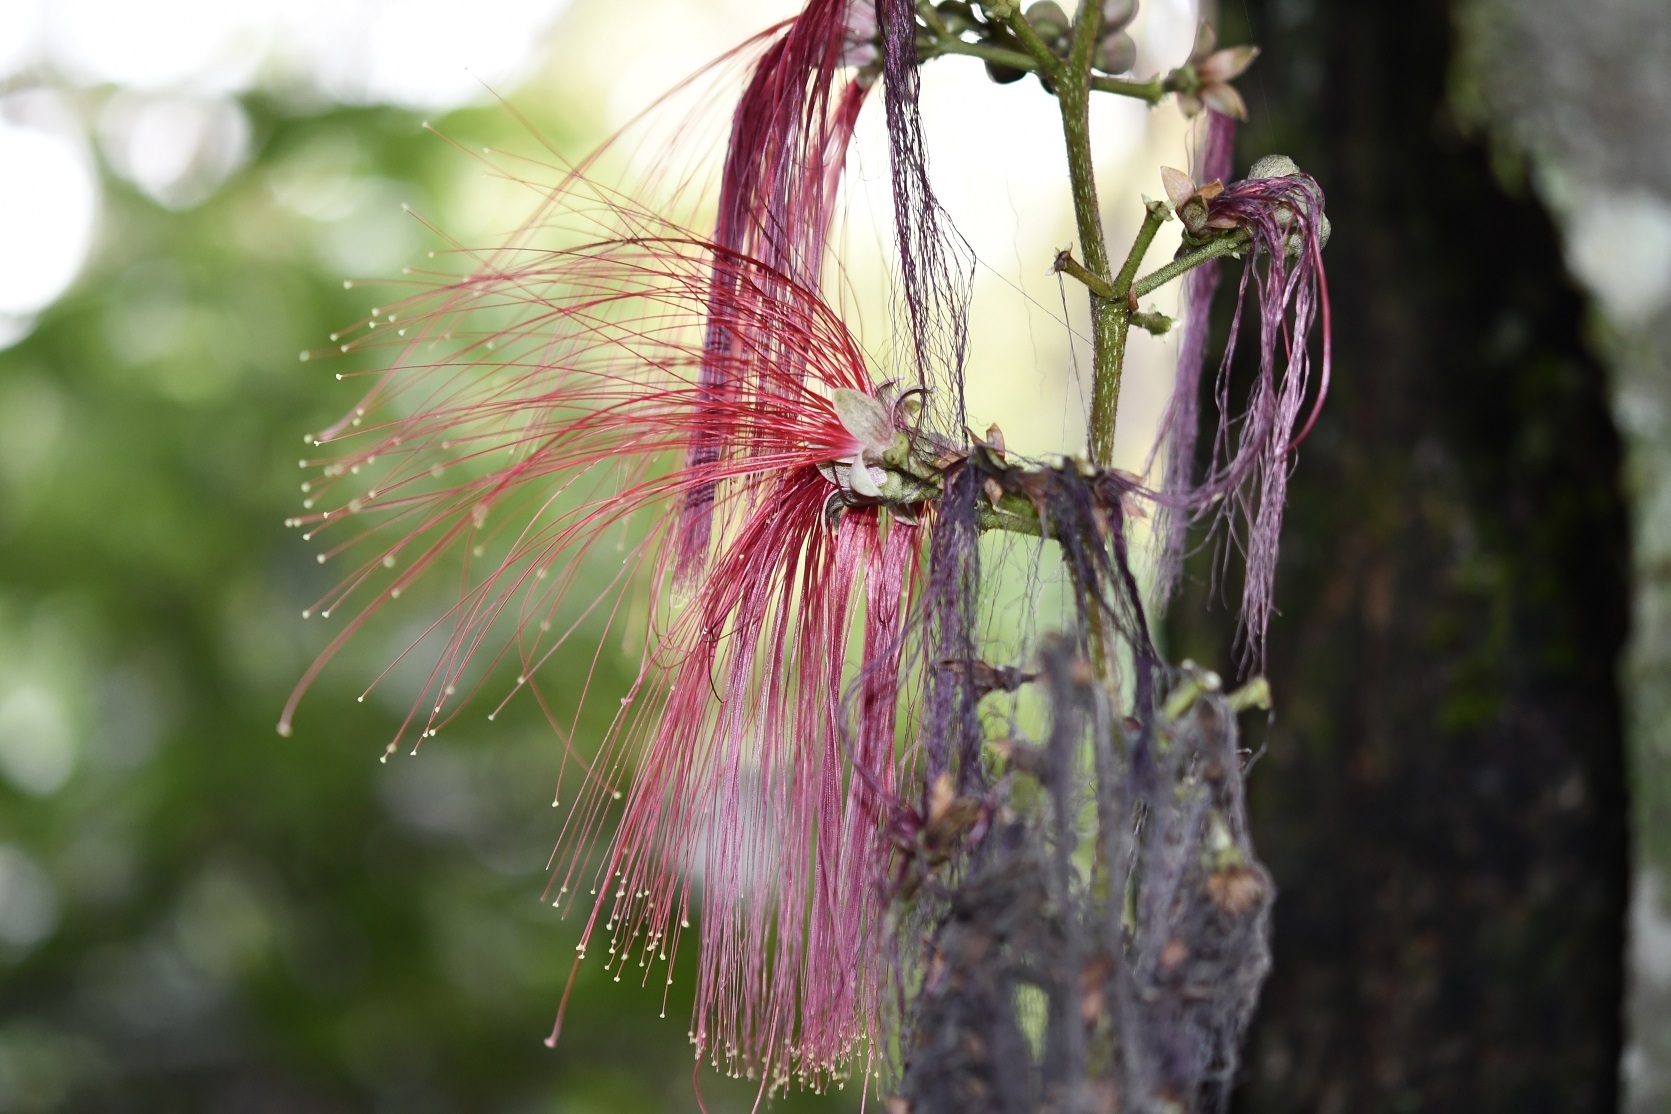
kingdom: Plantae
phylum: Tracheophyta
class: Magnoliopsida
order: Fabales
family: Fabaceae
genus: Calliandra
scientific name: Calliandra houstoniana
